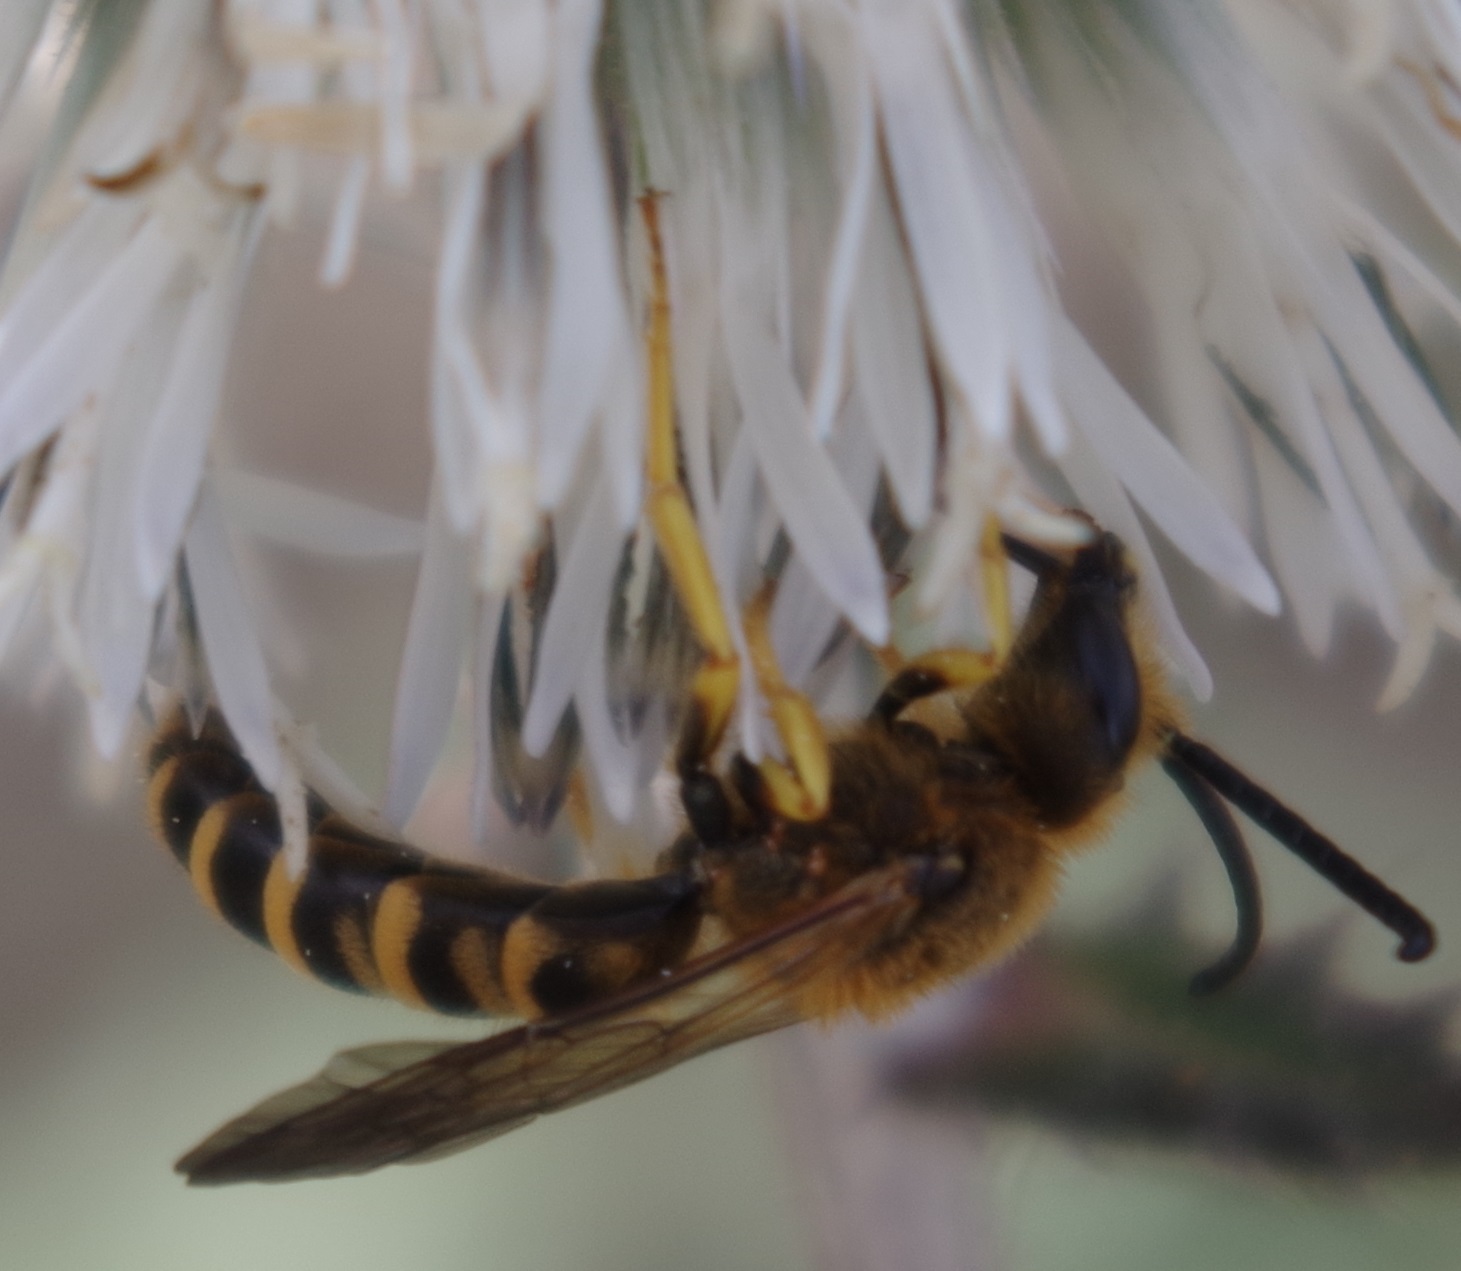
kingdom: Animalia
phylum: Arthropoda
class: Insecta
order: Hymenoptera
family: Halictidae
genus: Halictus
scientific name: Halictus scabiosae
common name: Great banded furrow bee
